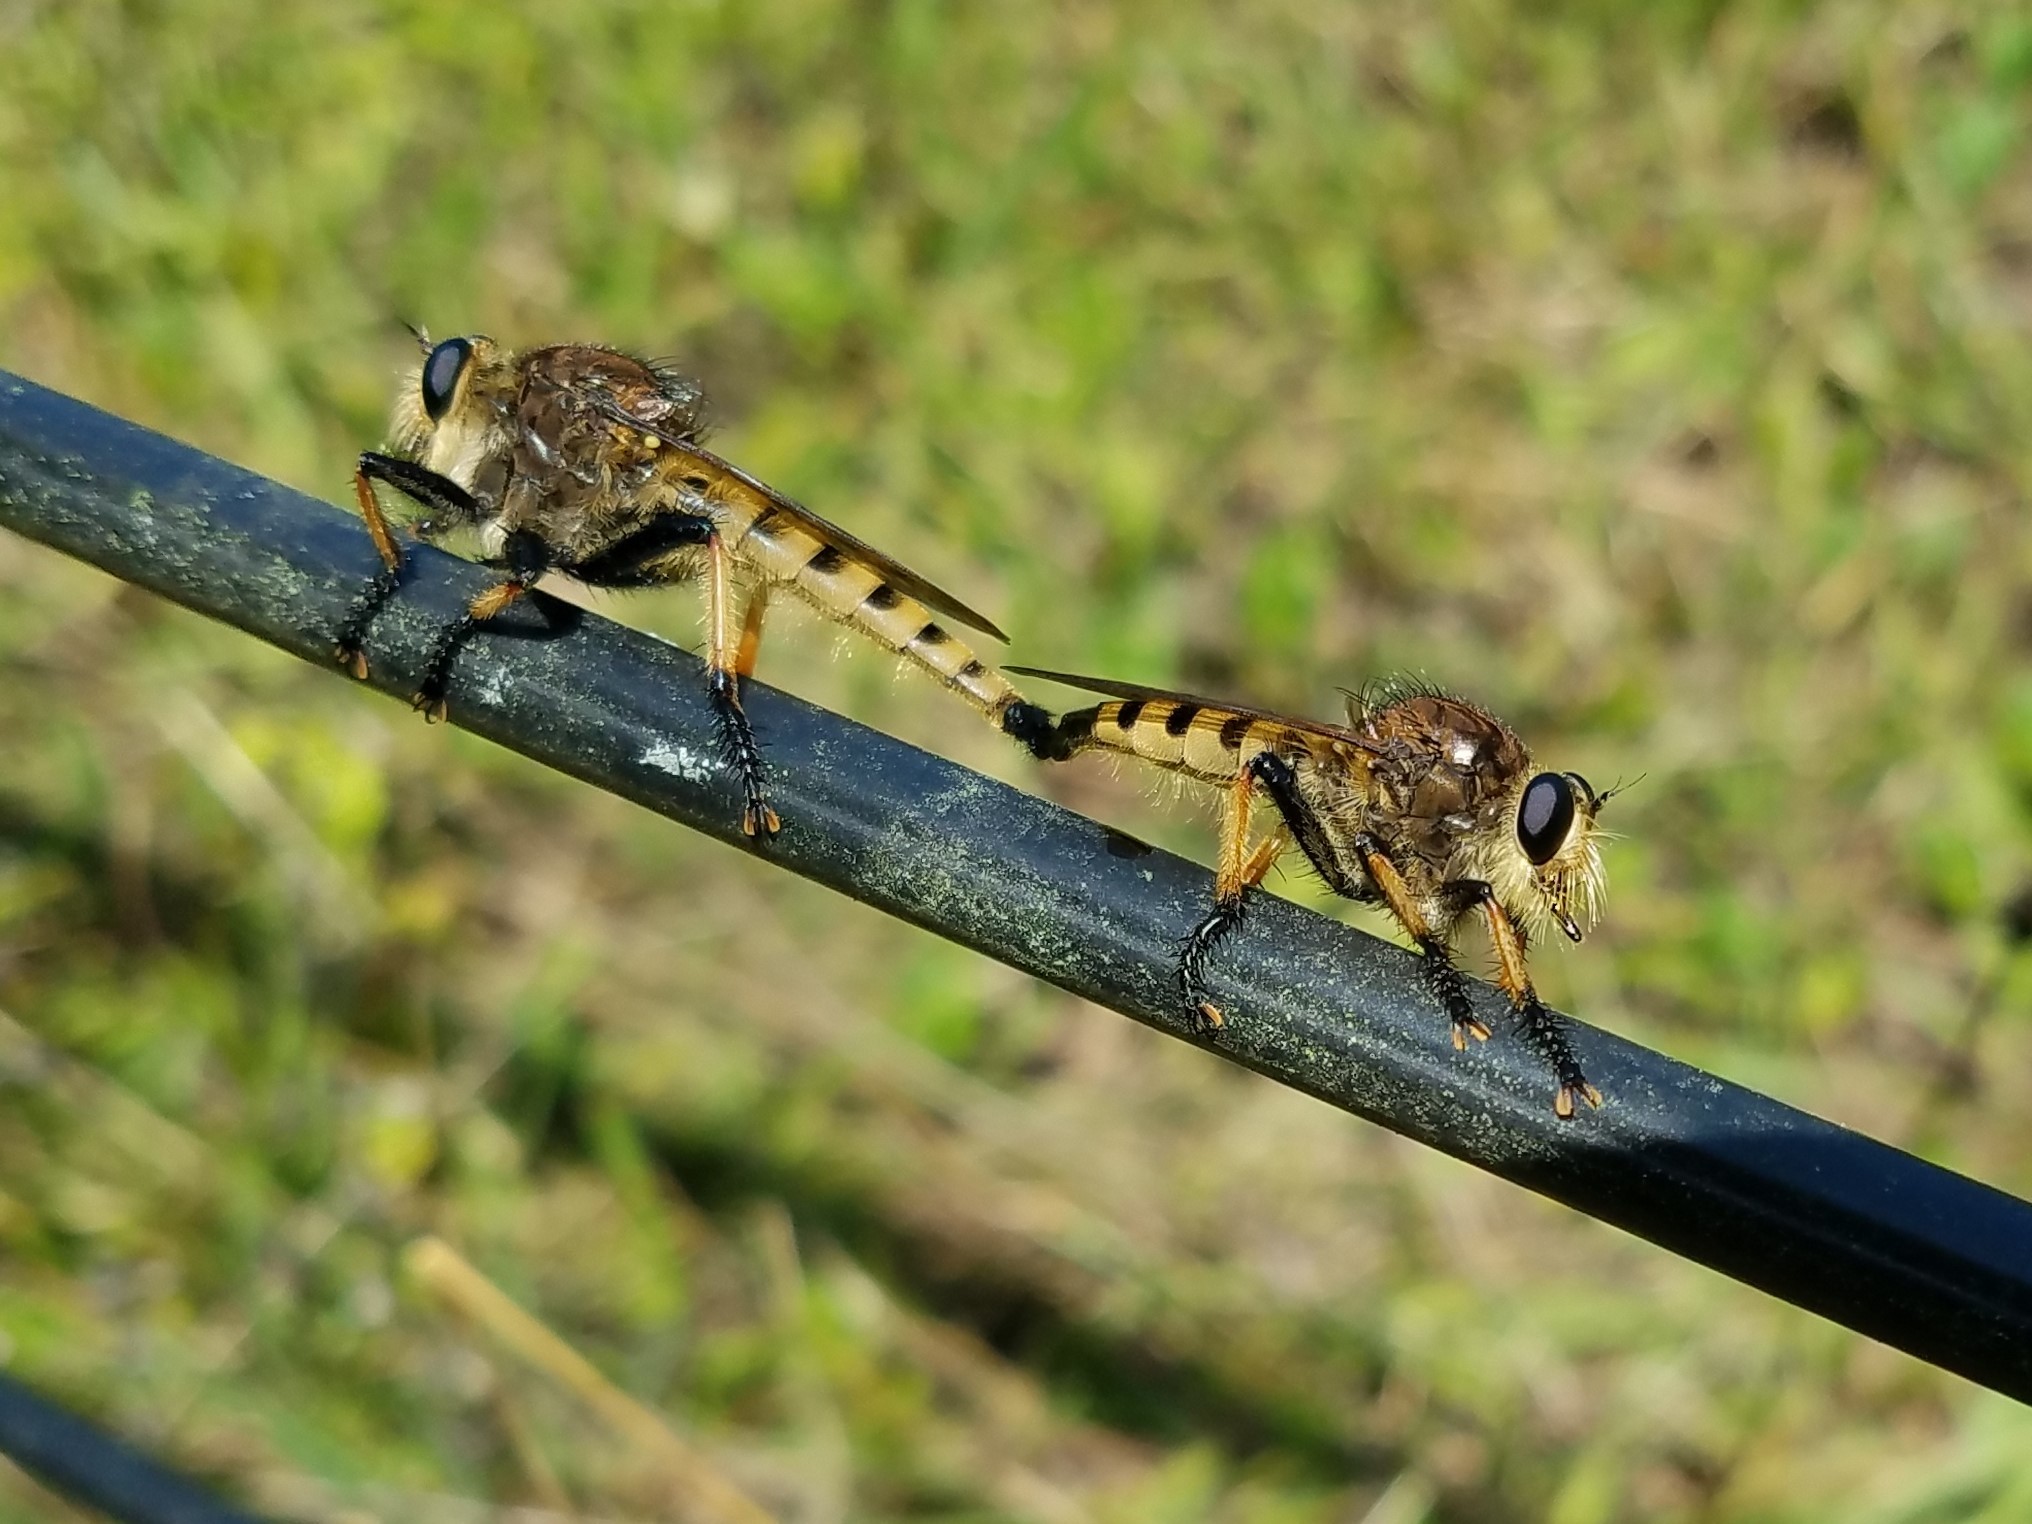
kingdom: Animalia
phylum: Arthropoda
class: Insecta
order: Diptera
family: Asilidae
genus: Promachus
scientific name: Promachus rufipes
